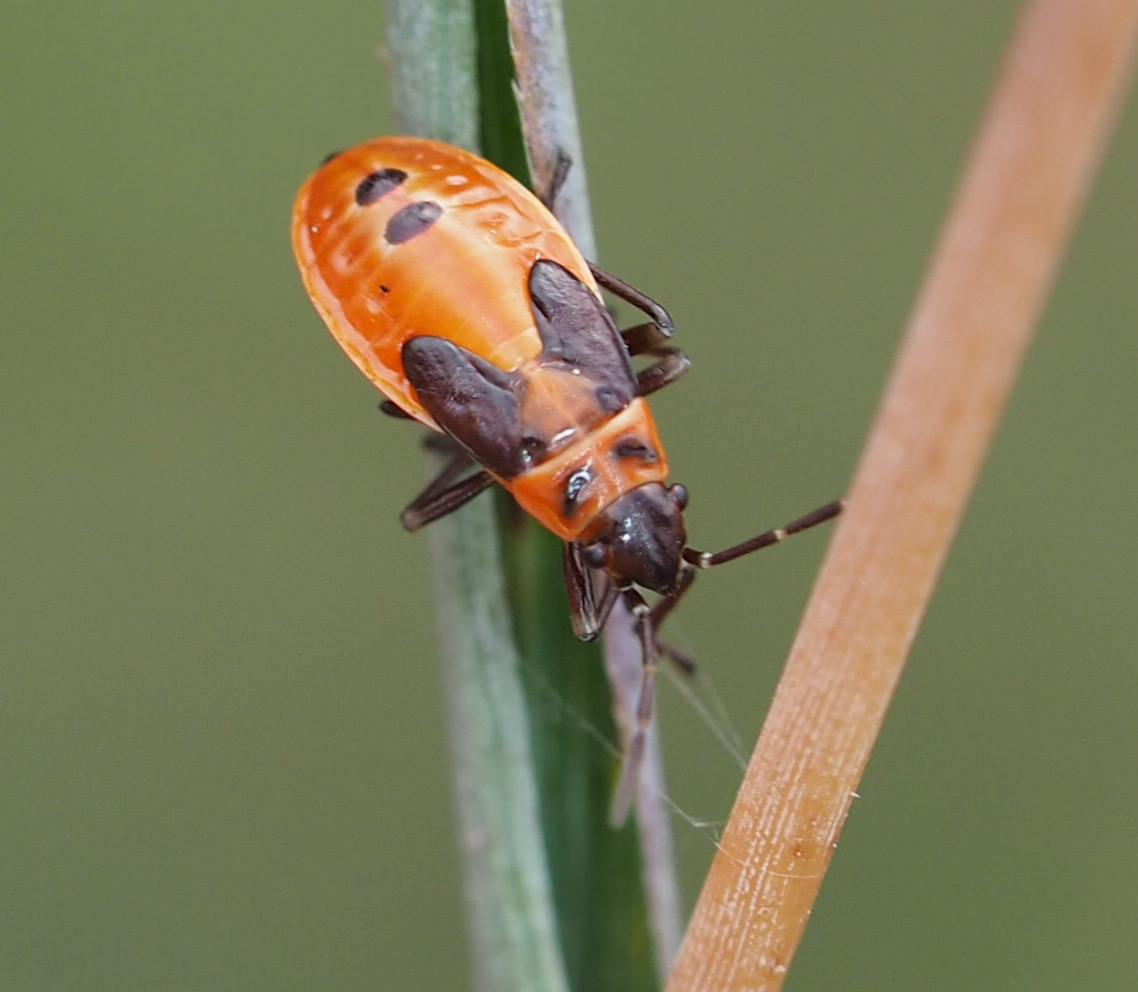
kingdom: Animalia
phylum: Arthropoda
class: Insecta
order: Hemiptera
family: Lygaeidae
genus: Lygaeus
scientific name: Lygaeus kalmii
